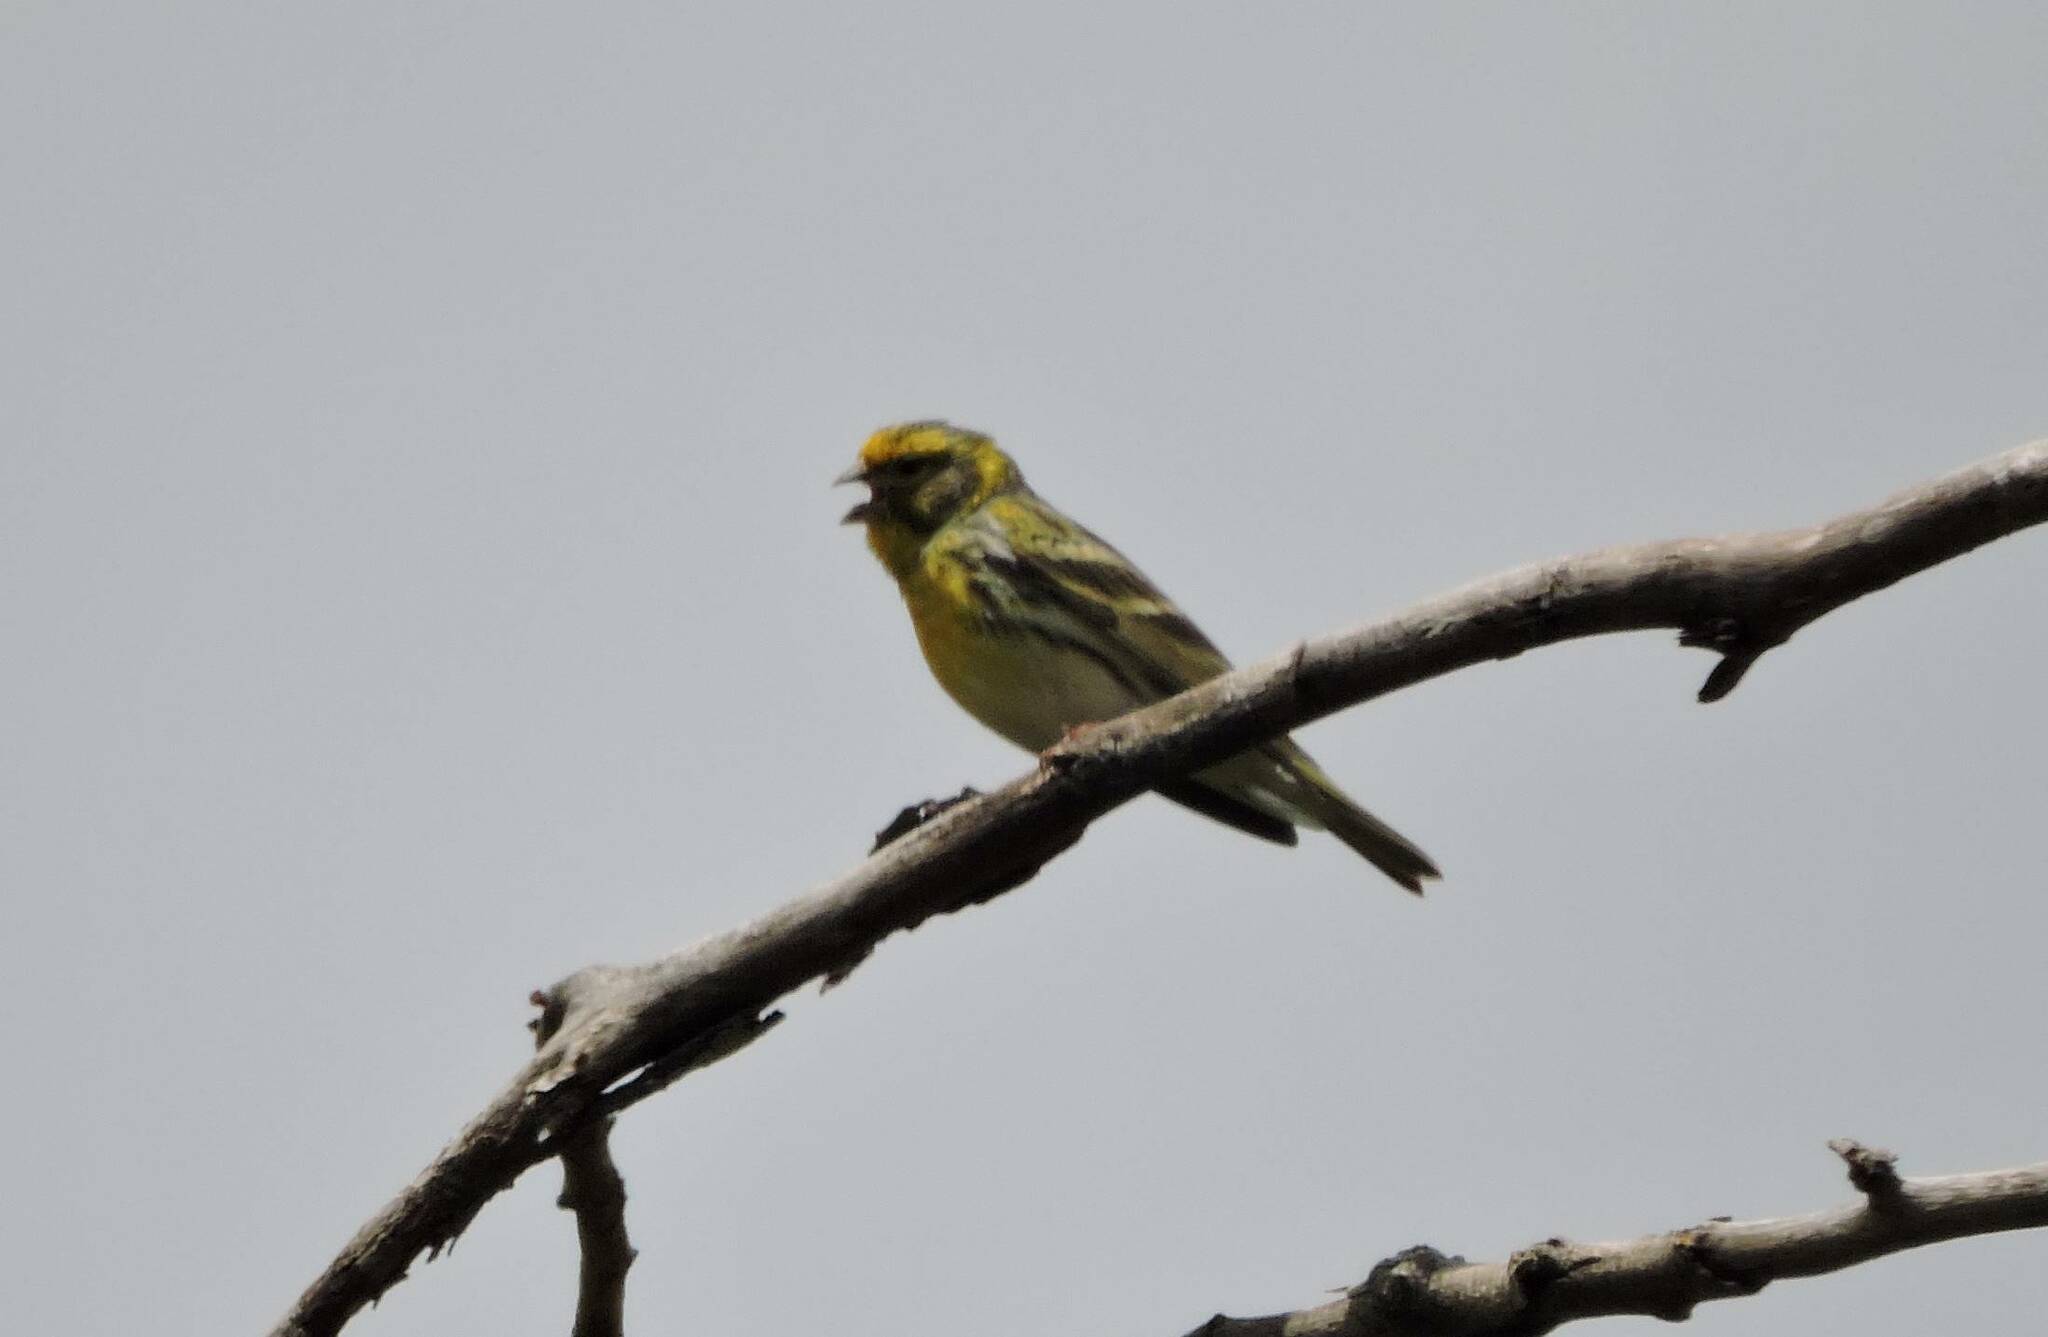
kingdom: Animalia
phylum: Chordata
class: Aves
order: Passeriformes
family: Fringillidae
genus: Serinus
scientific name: Serinus serinus
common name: European serin
